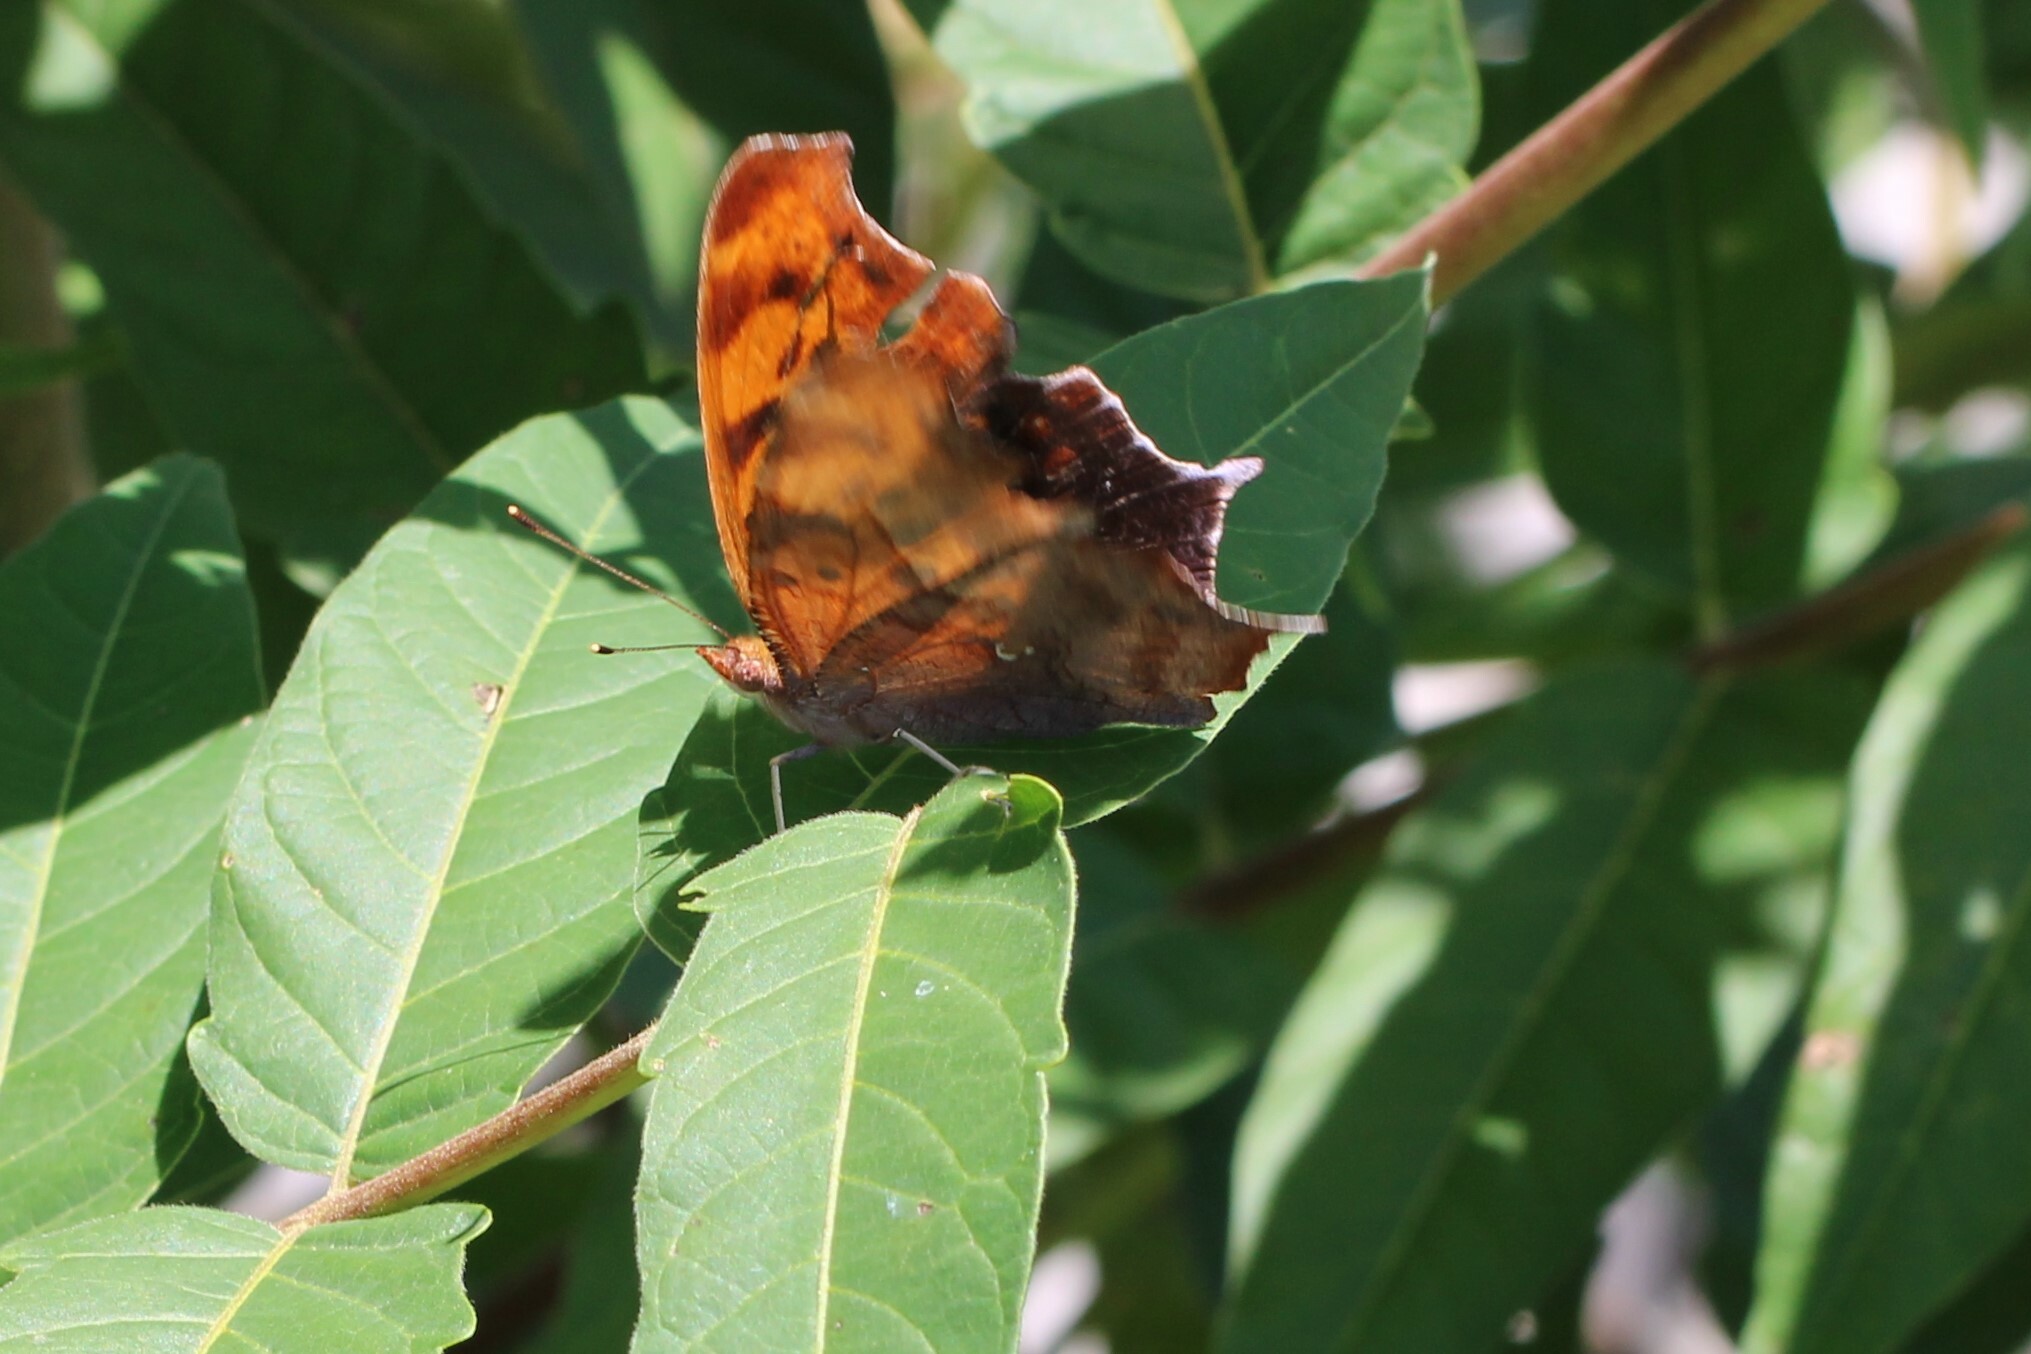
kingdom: Animalia
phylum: Arthropoda
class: Insecta
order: Lepidoptera
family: Nymphalidae
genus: Polygonia
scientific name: Polygonia interrogationis
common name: Question mark
